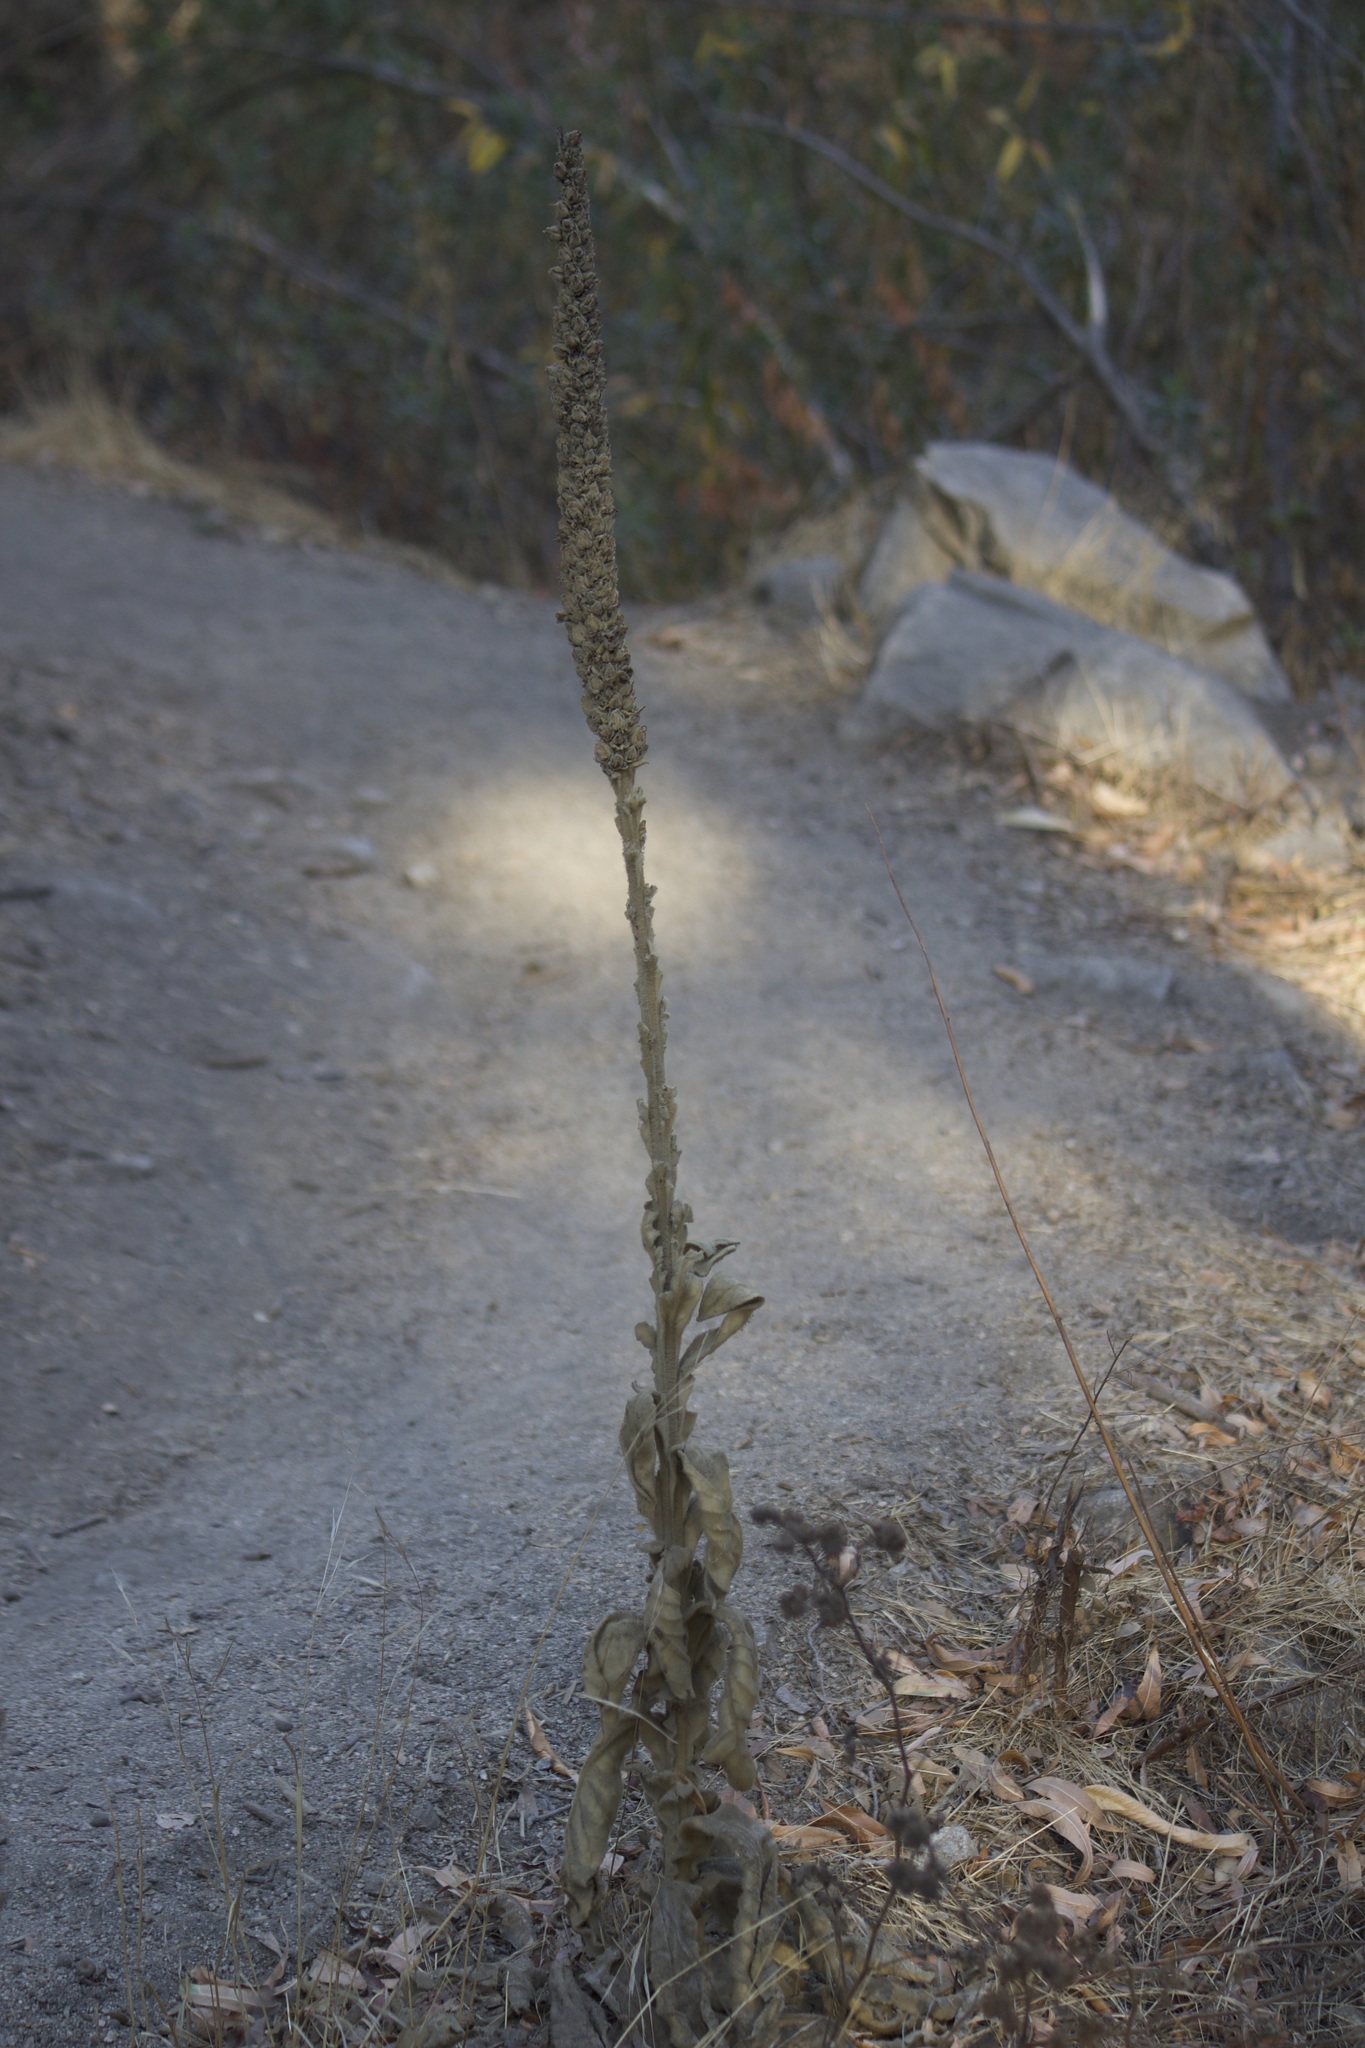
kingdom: Plantae
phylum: Tracheophyta
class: Magnoliopsida
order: Lamiales
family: Scrophulariaceae
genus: Verbascum
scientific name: Verbascum thapsus
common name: Common mullein
